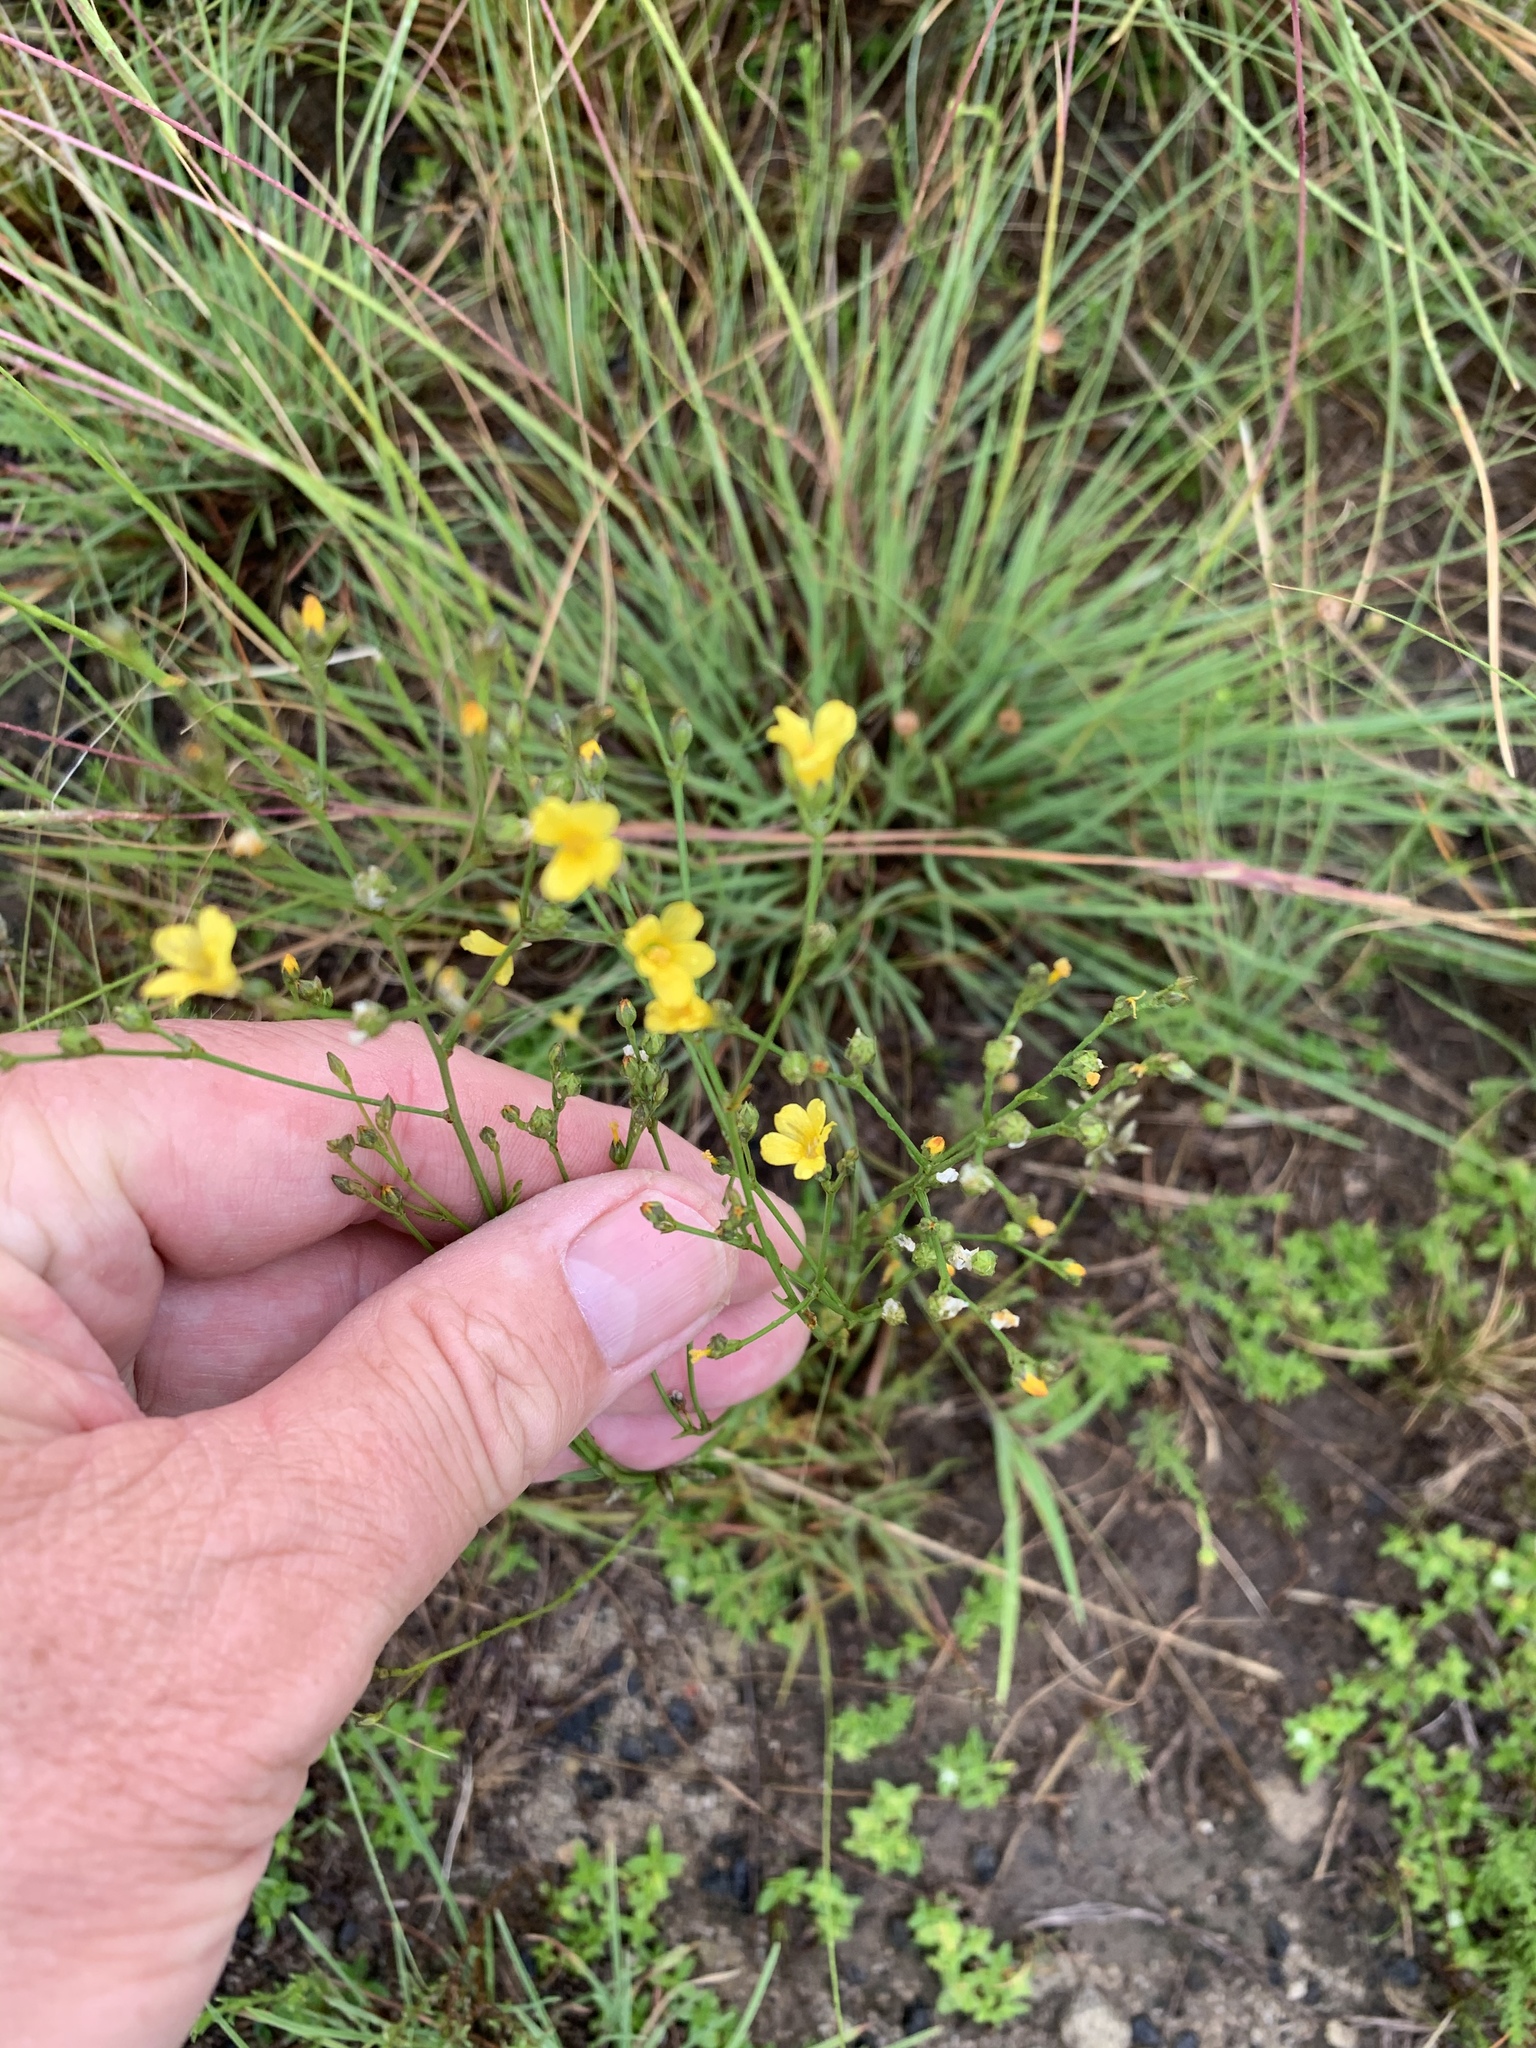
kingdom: Plantae
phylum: Tracheophyta
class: Magnoliopsida
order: Malpighiales
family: Linaceae
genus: Linum
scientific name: Linum thunbergii
